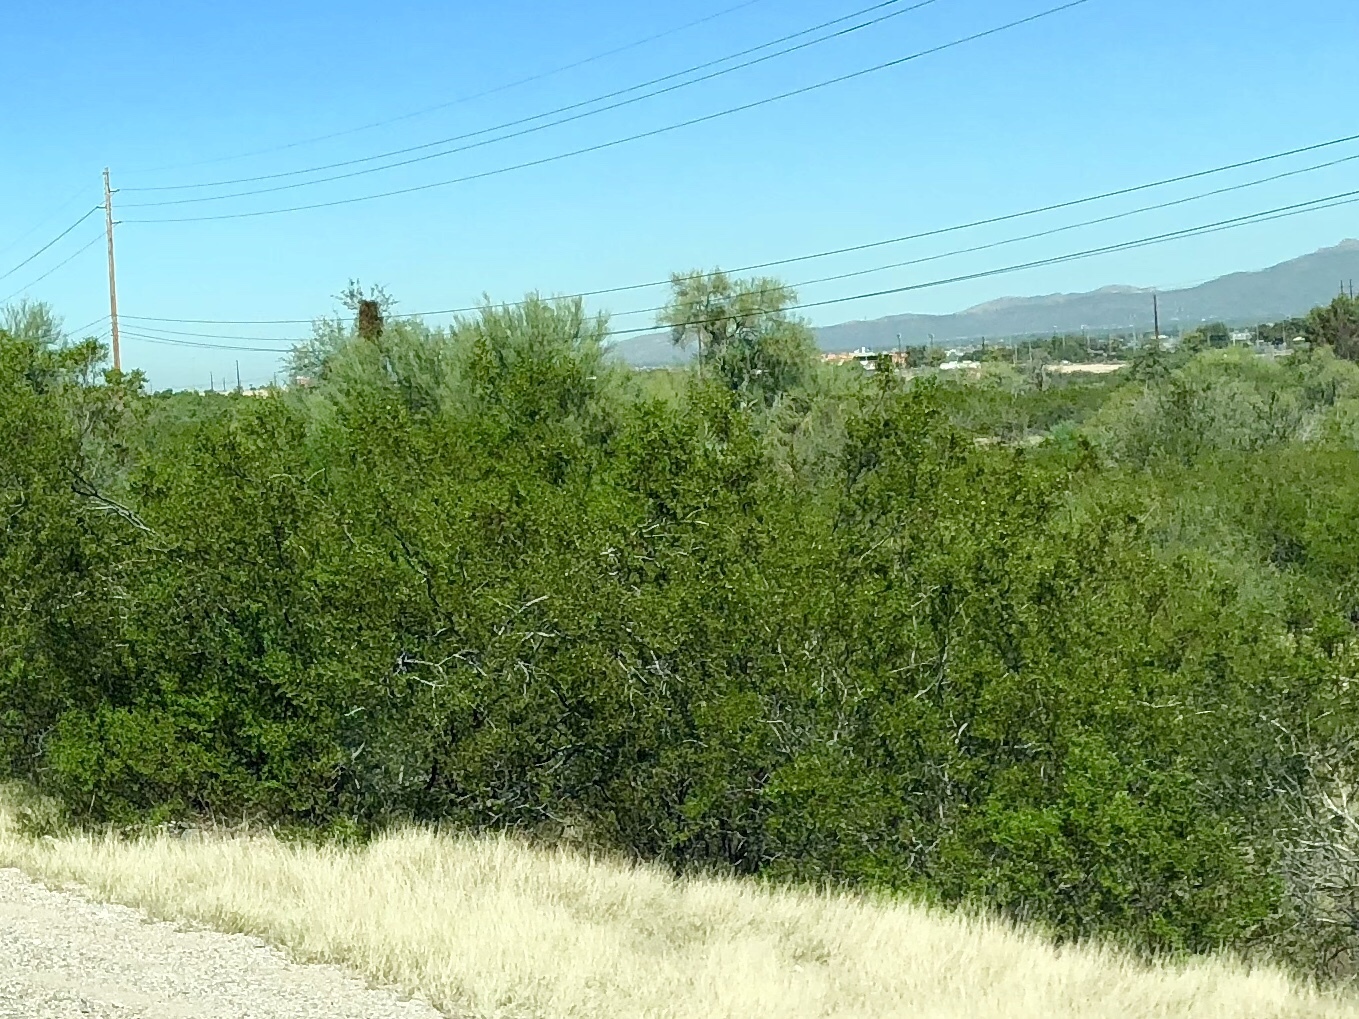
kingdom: Plantae
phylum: Tracheophyta
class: Magnoliopsida
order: Zygophyllales
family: Zygophyllaceae
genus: Larrea
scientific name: Larrea tridentata
